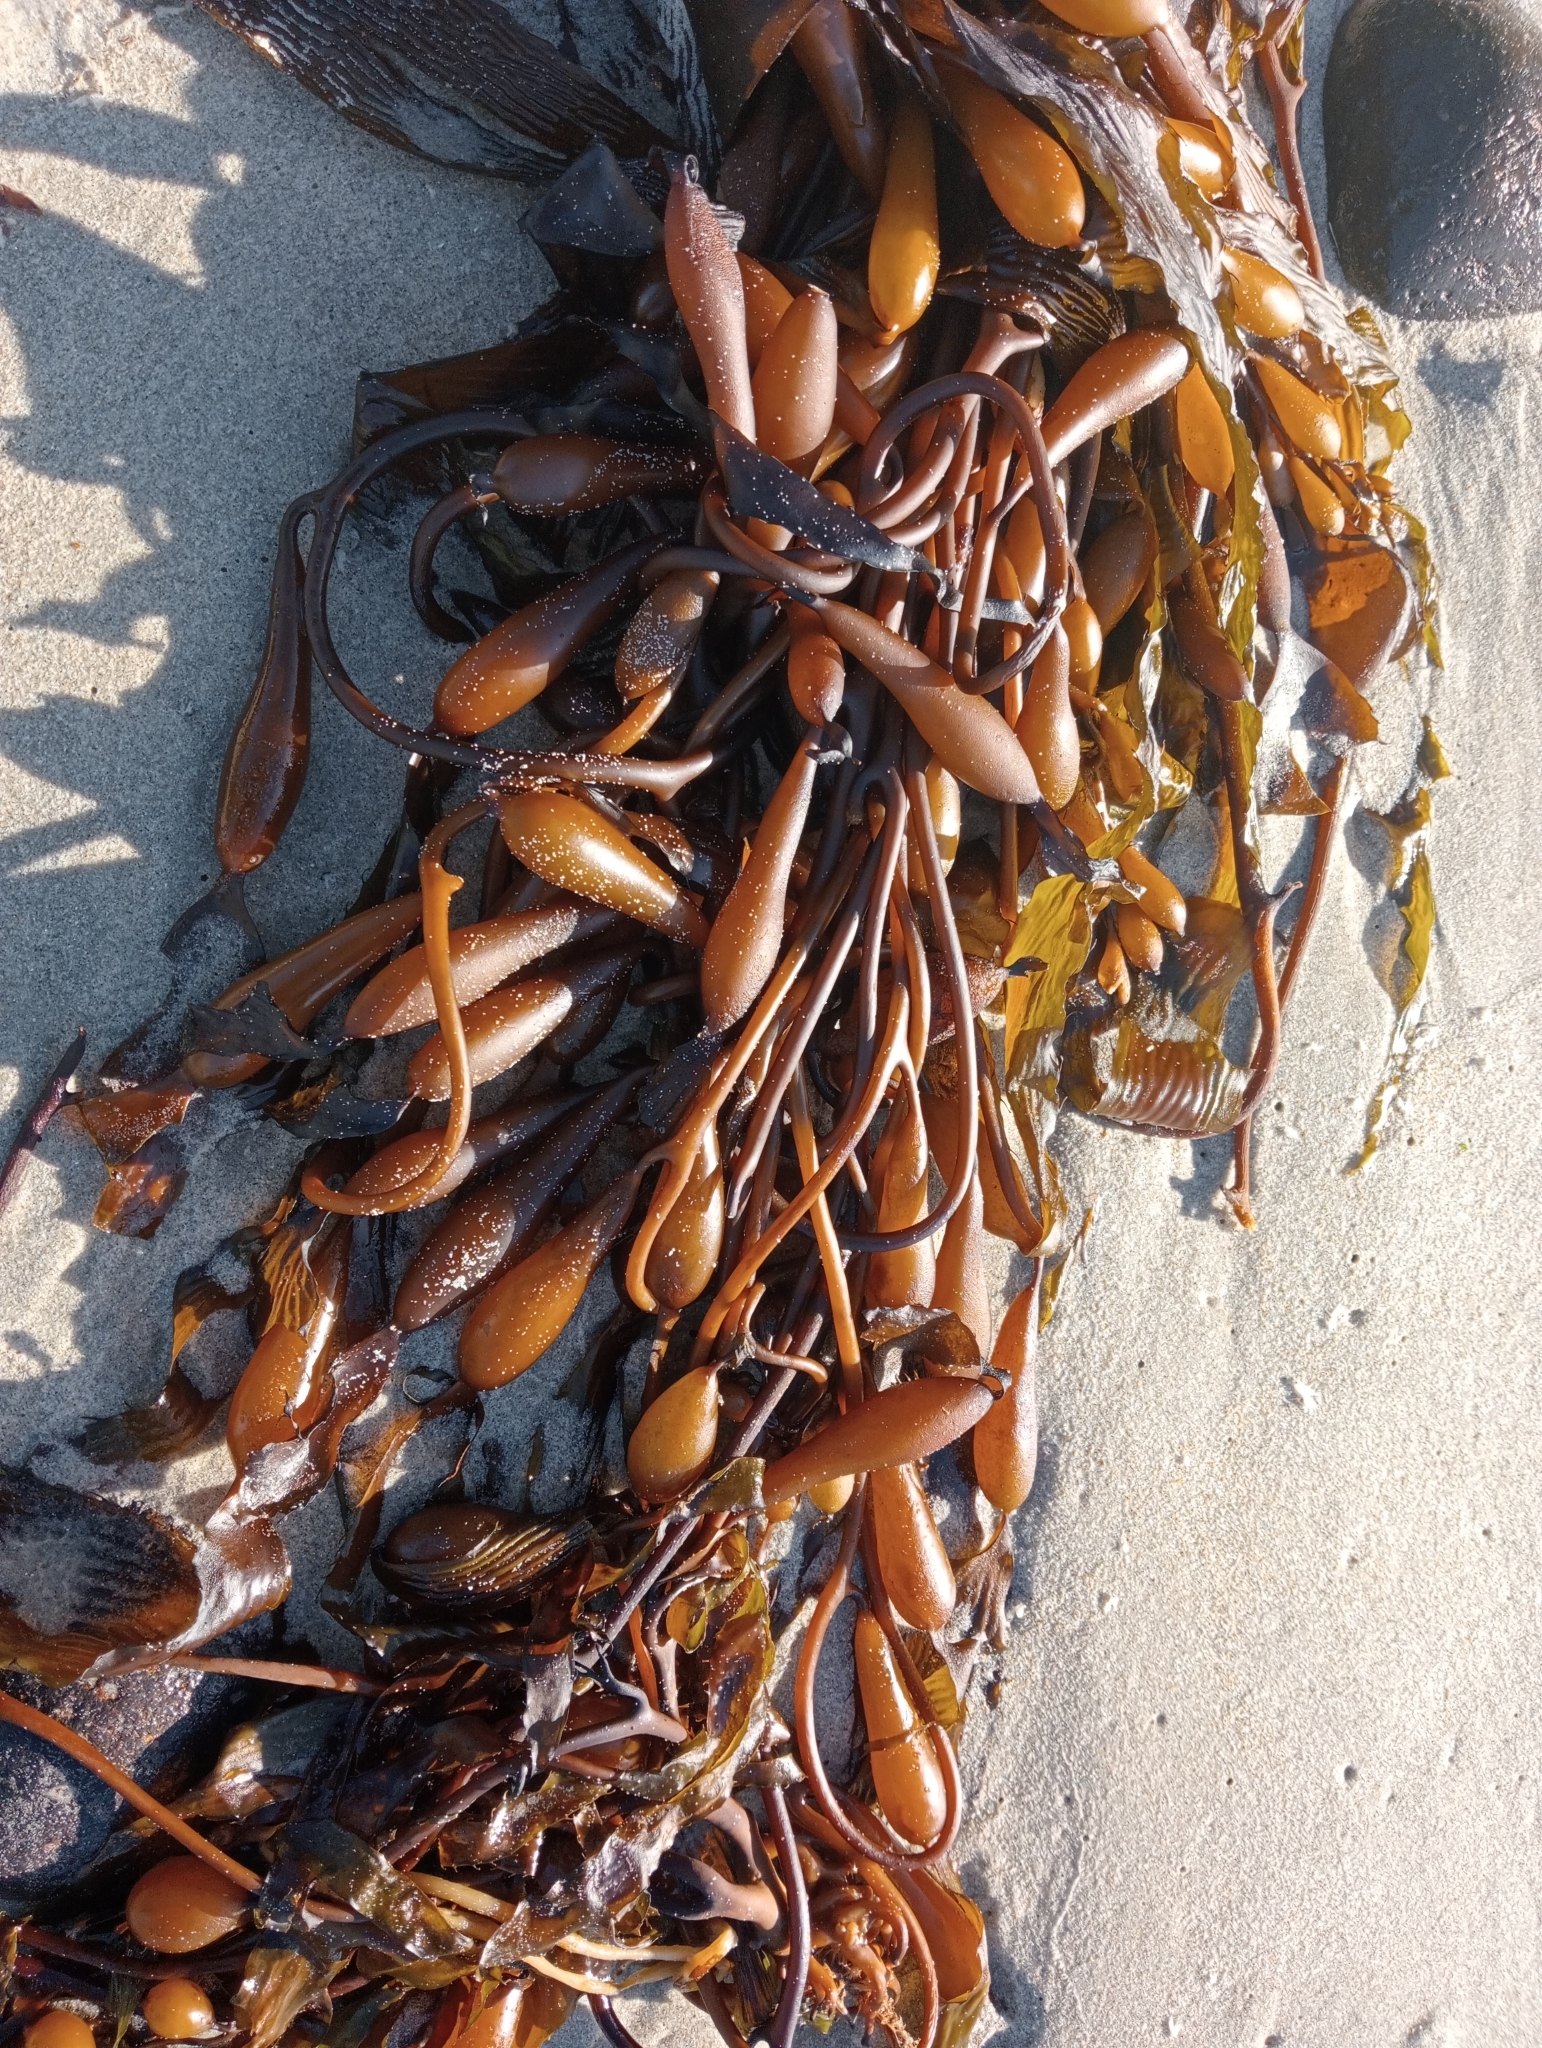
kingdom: Chromista
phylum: Ochrophyta
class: Phaeophyceae
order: Laminariales
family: Laminariaceae
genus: Macrocystis
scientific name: Macrocystis pyrifera
